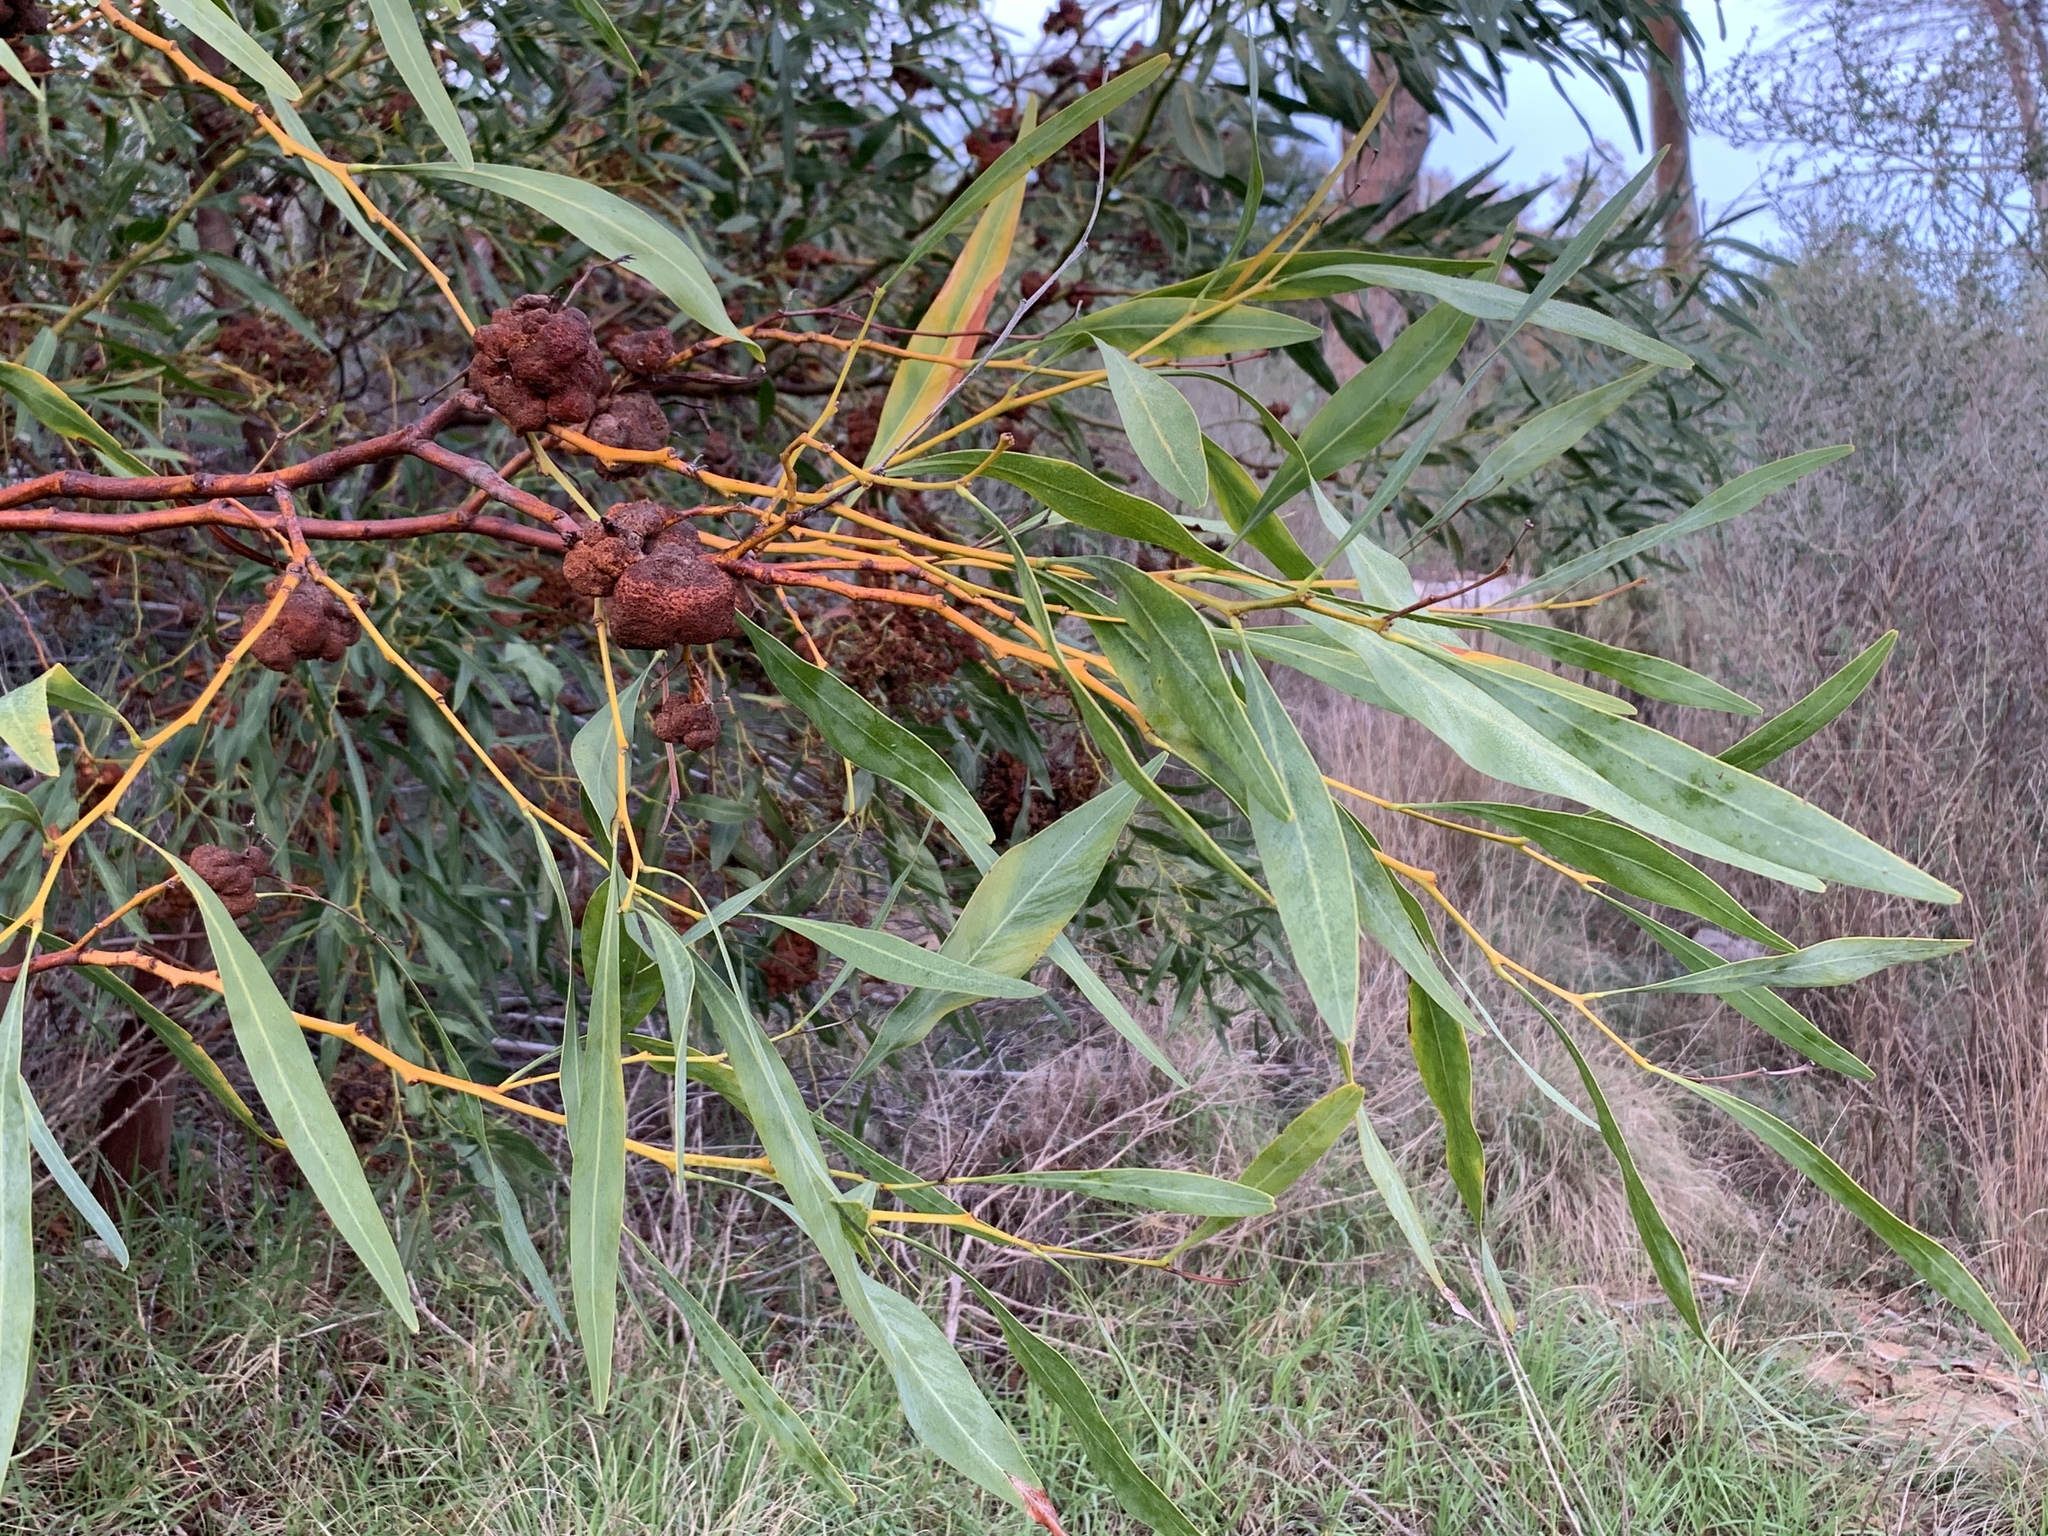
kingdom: Plantae
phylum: Tracheophyta
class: Magnoliopsida
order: Fabales
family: Fabaceae
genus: Acacia
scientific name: Acacia saligna
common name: Orange wattle
